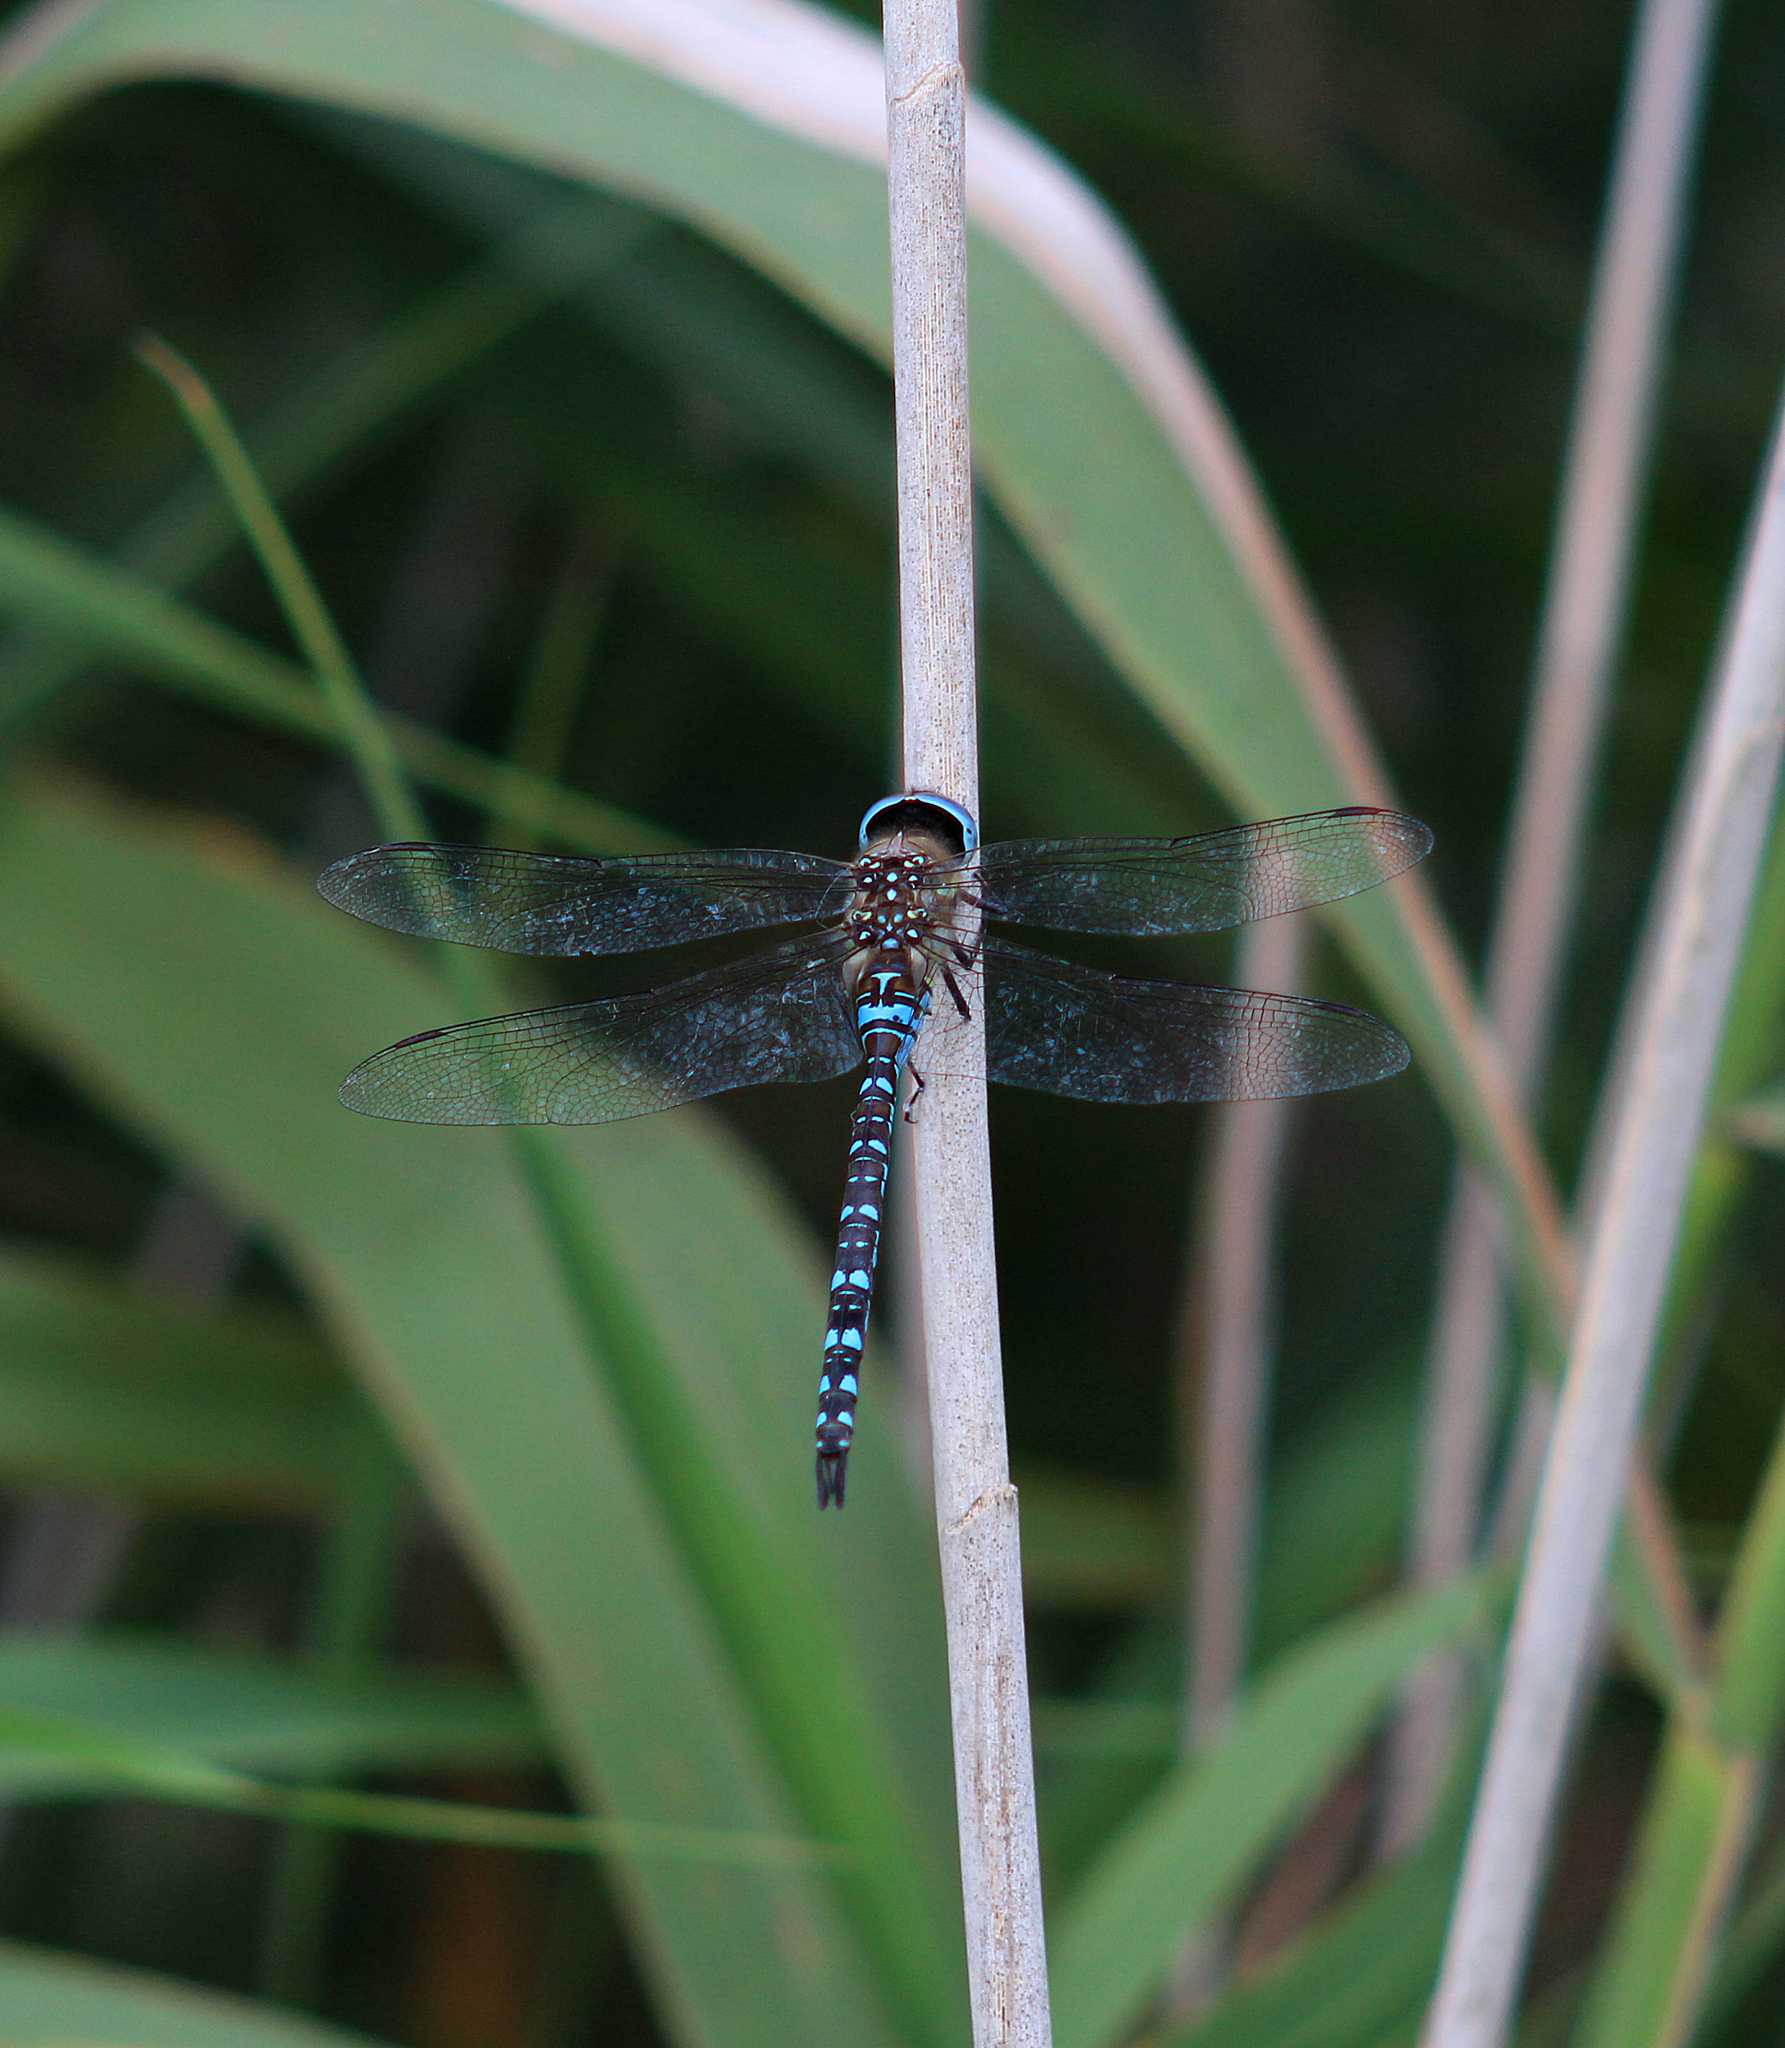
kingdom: Animalia
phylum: Arthropoda
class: Insecta
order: Odonata
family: Aeshnidae
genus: Aeshna
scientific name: Aeshna mixta
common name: Migrant hawker
